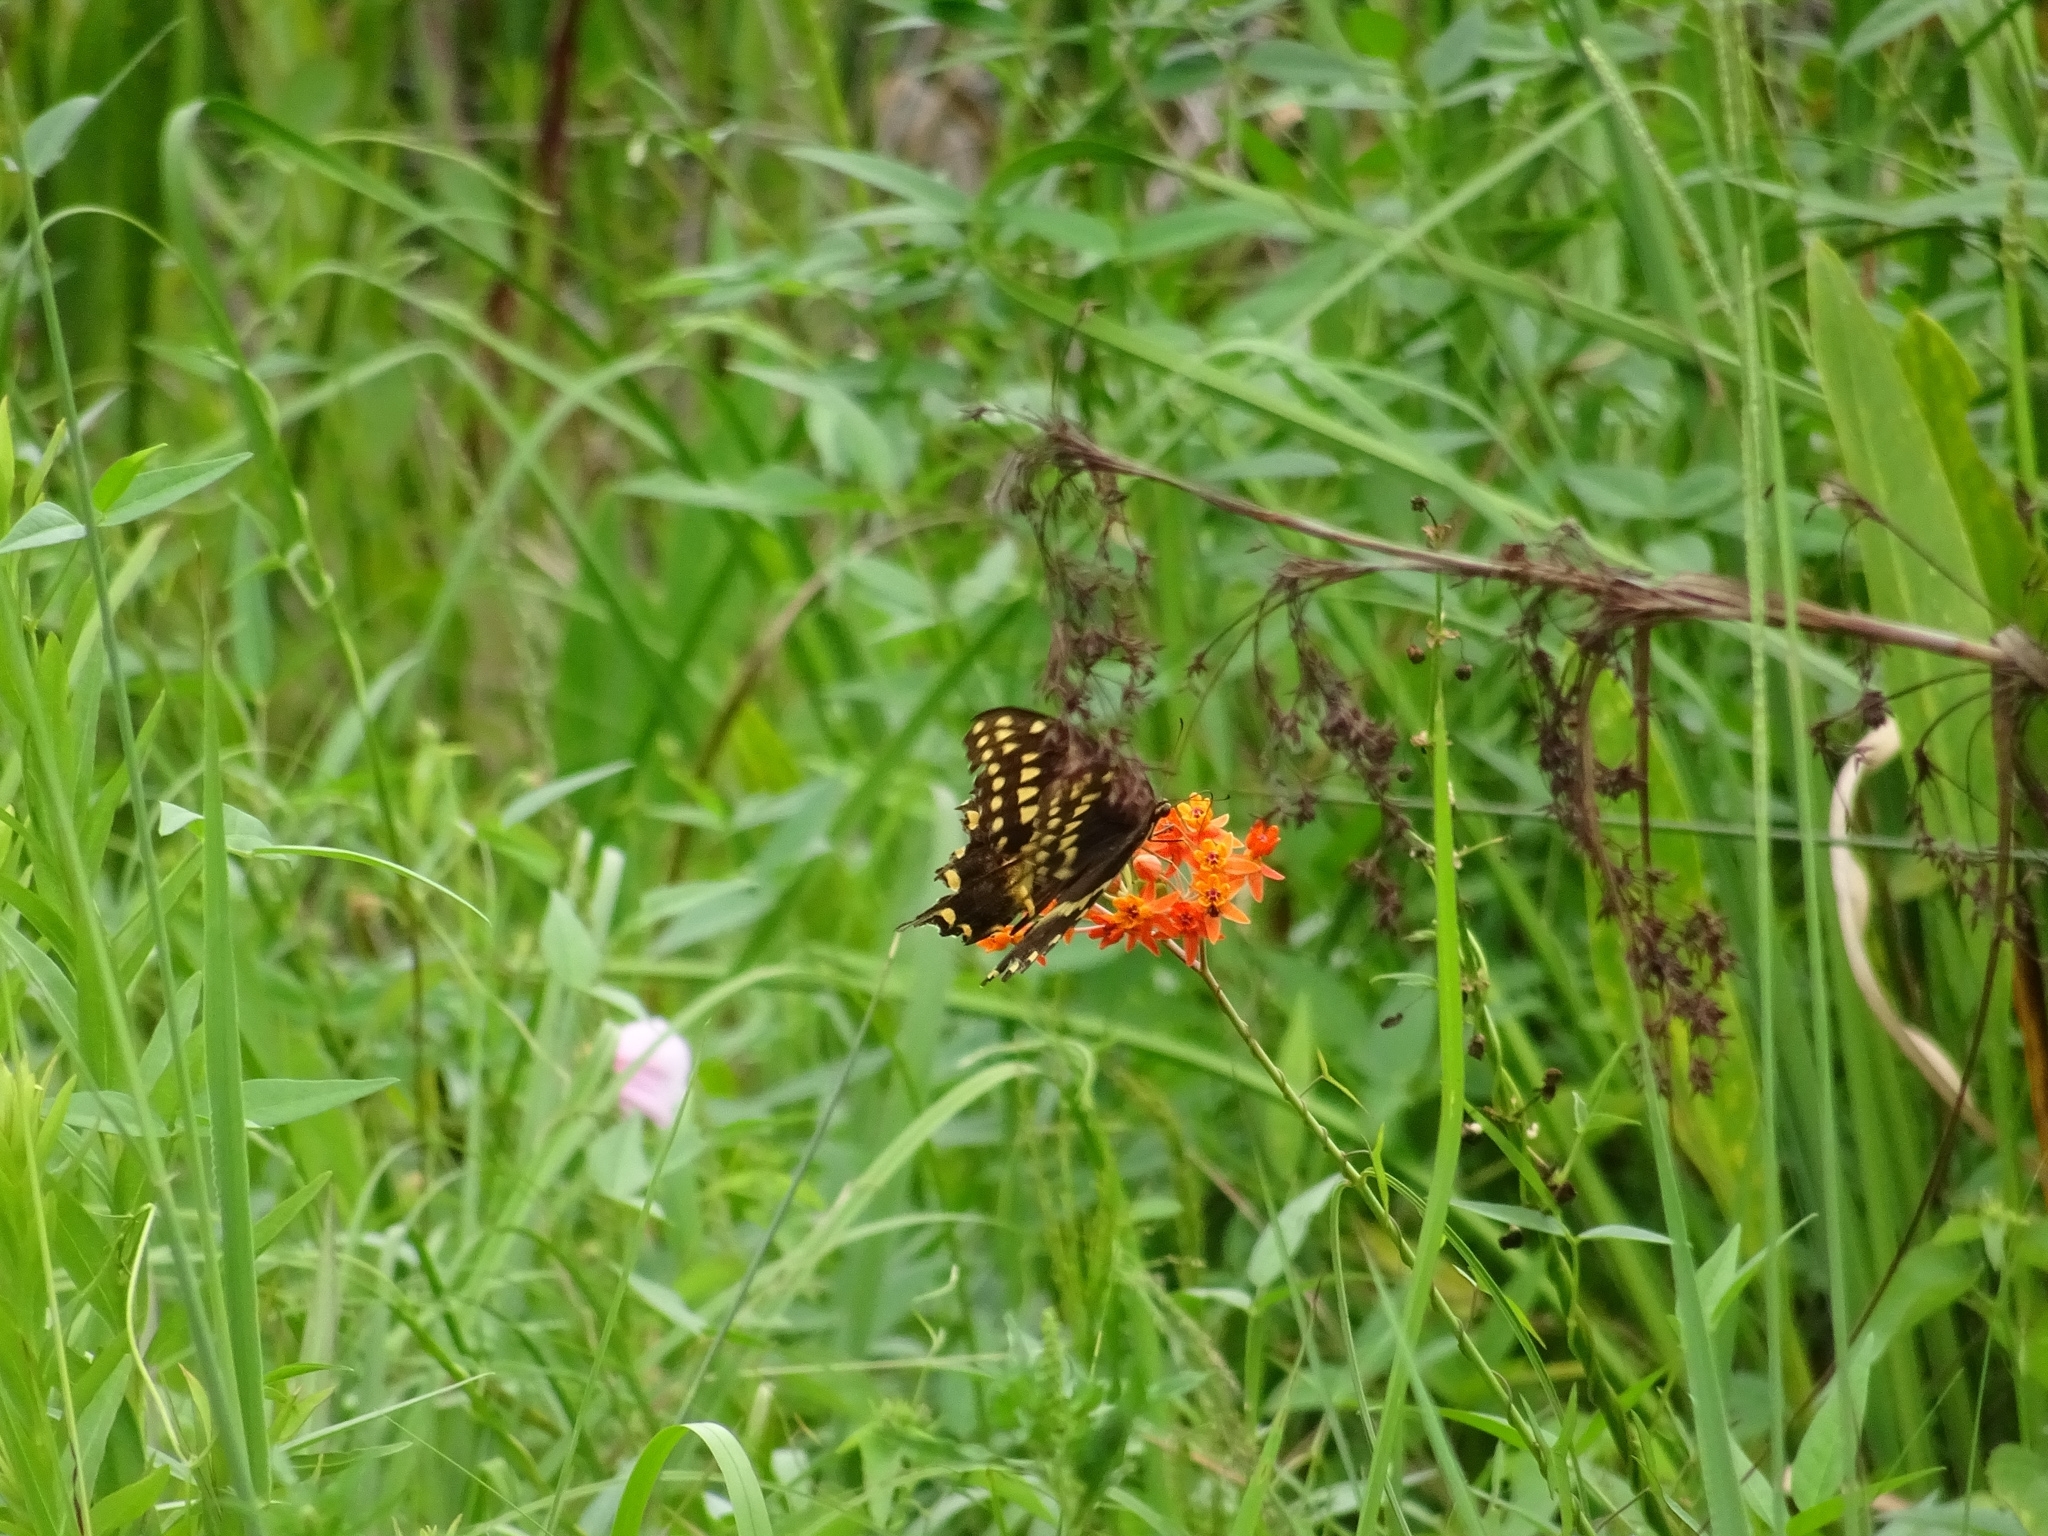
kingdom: Animalia
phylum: Arthropoda
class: Insecta
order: Lepidoptera
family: Papilionidae
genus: Papilio
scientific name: Papilio palamedes
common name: Palamedes swallowtail
